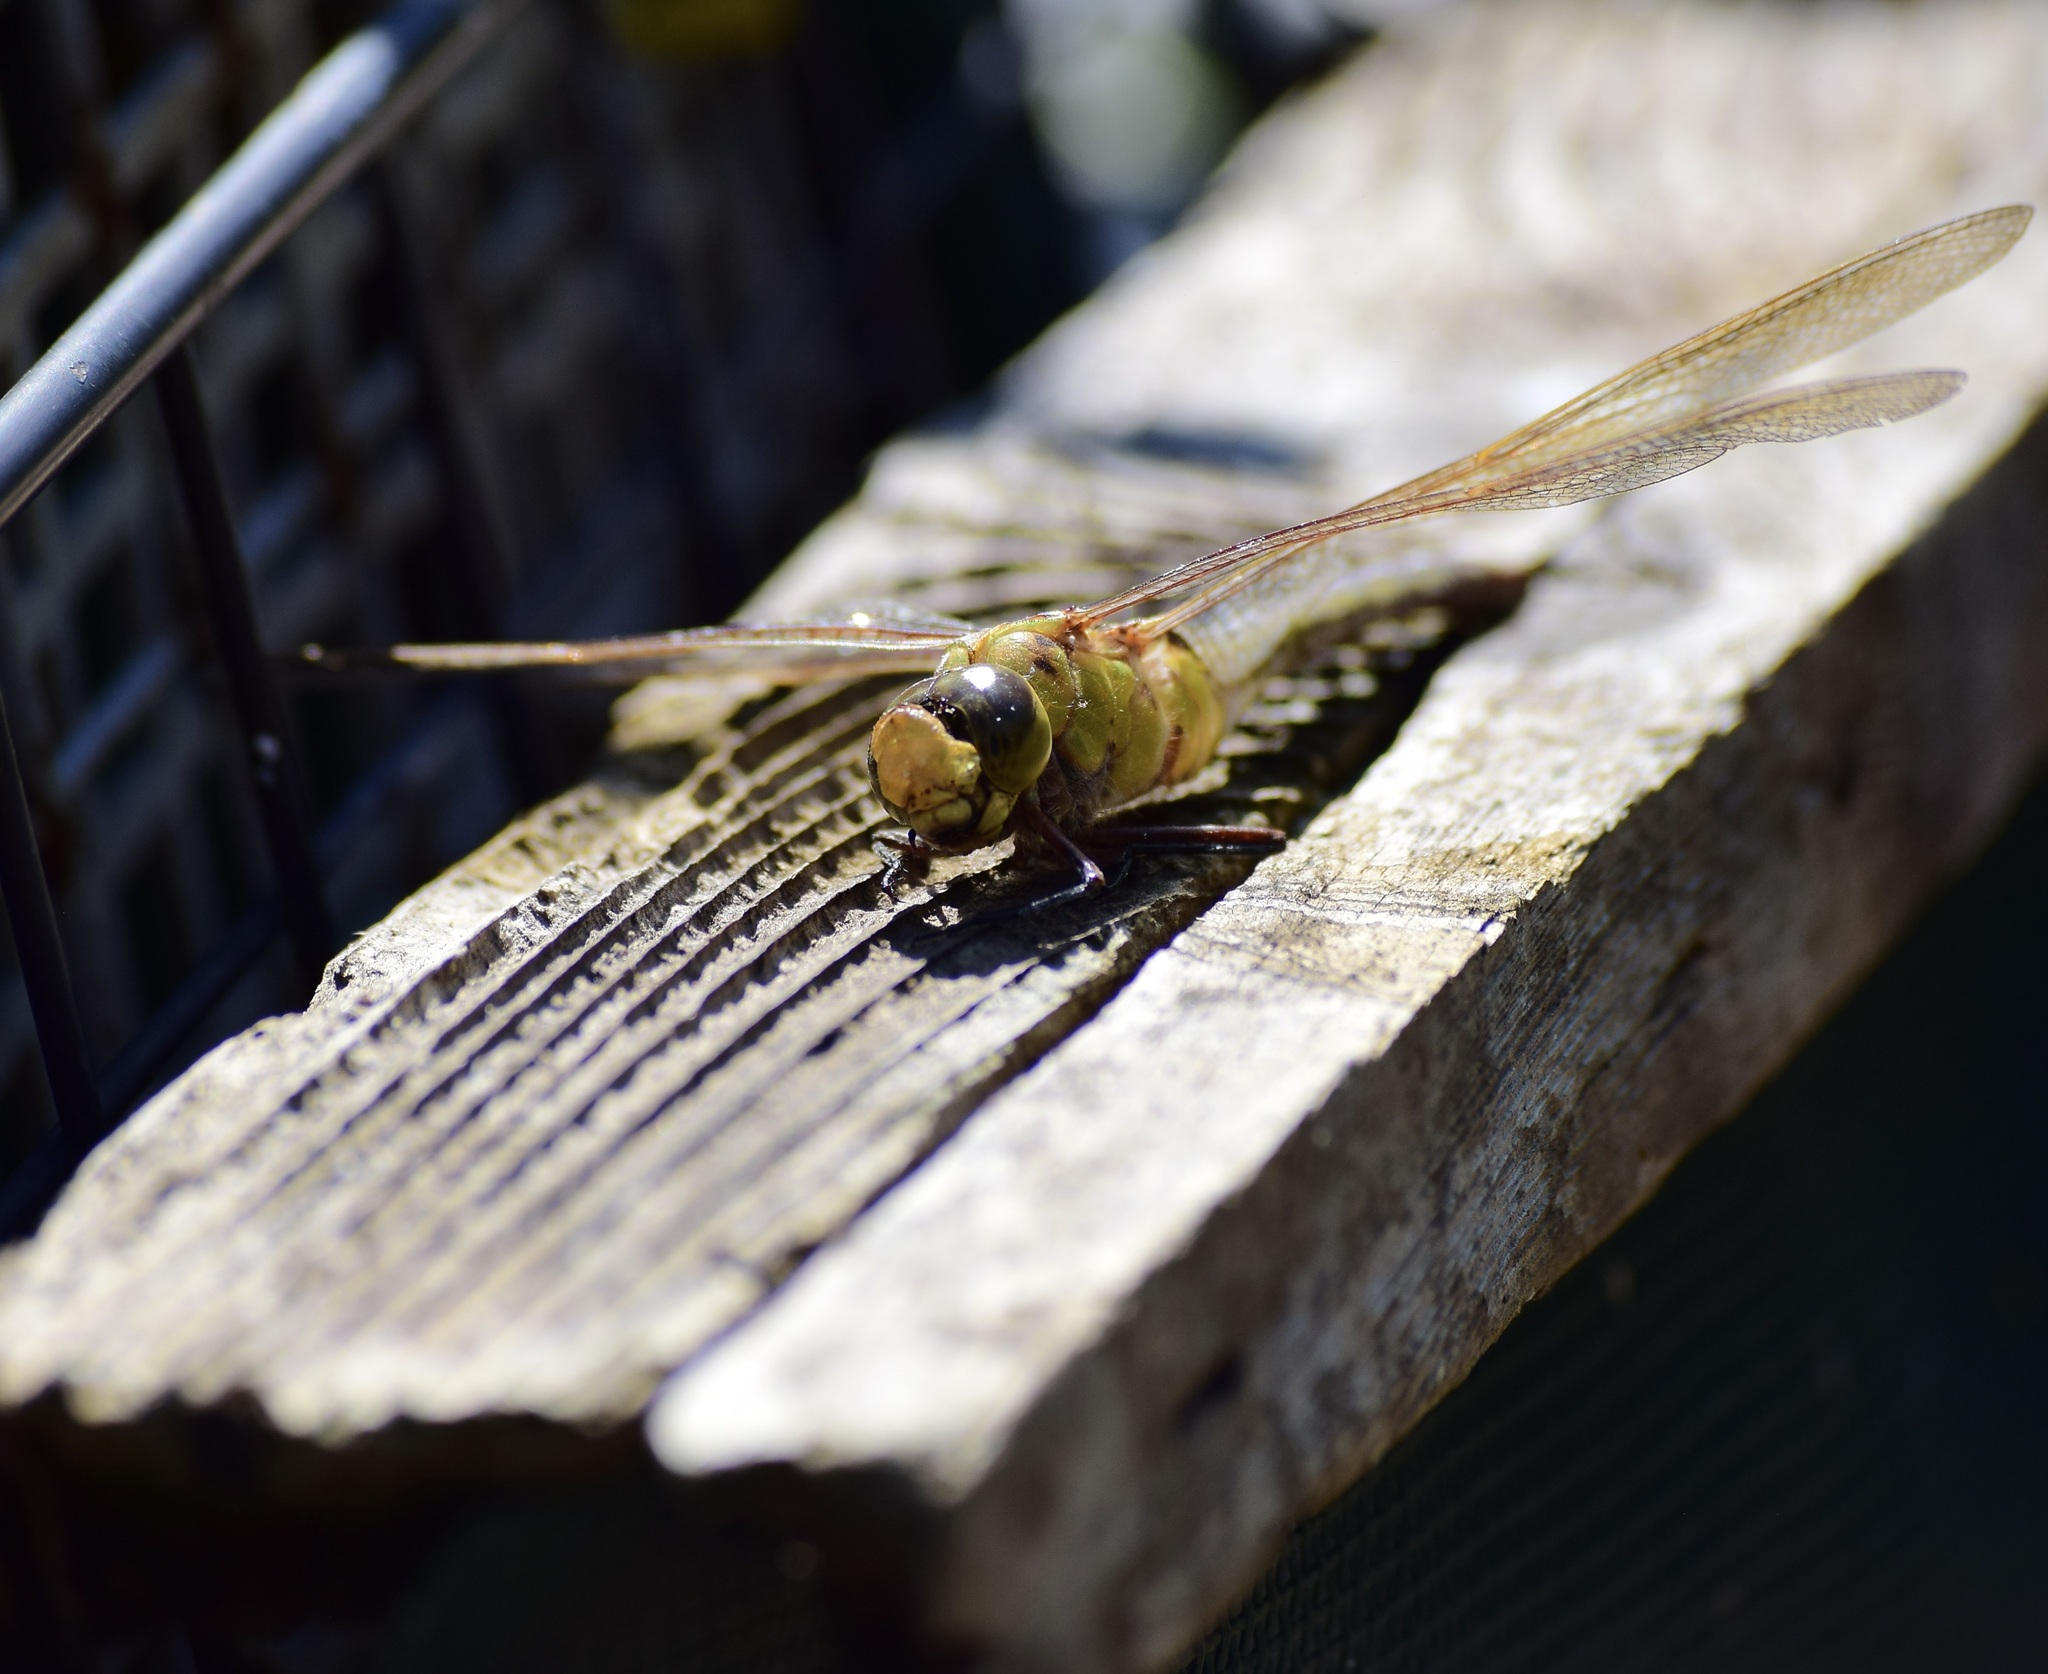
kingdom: Animalia
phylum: Arthropoda
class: Insecta
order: Odonata
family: Aeshnidae
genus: Anax
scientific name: Anax junius
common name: Common green darner
